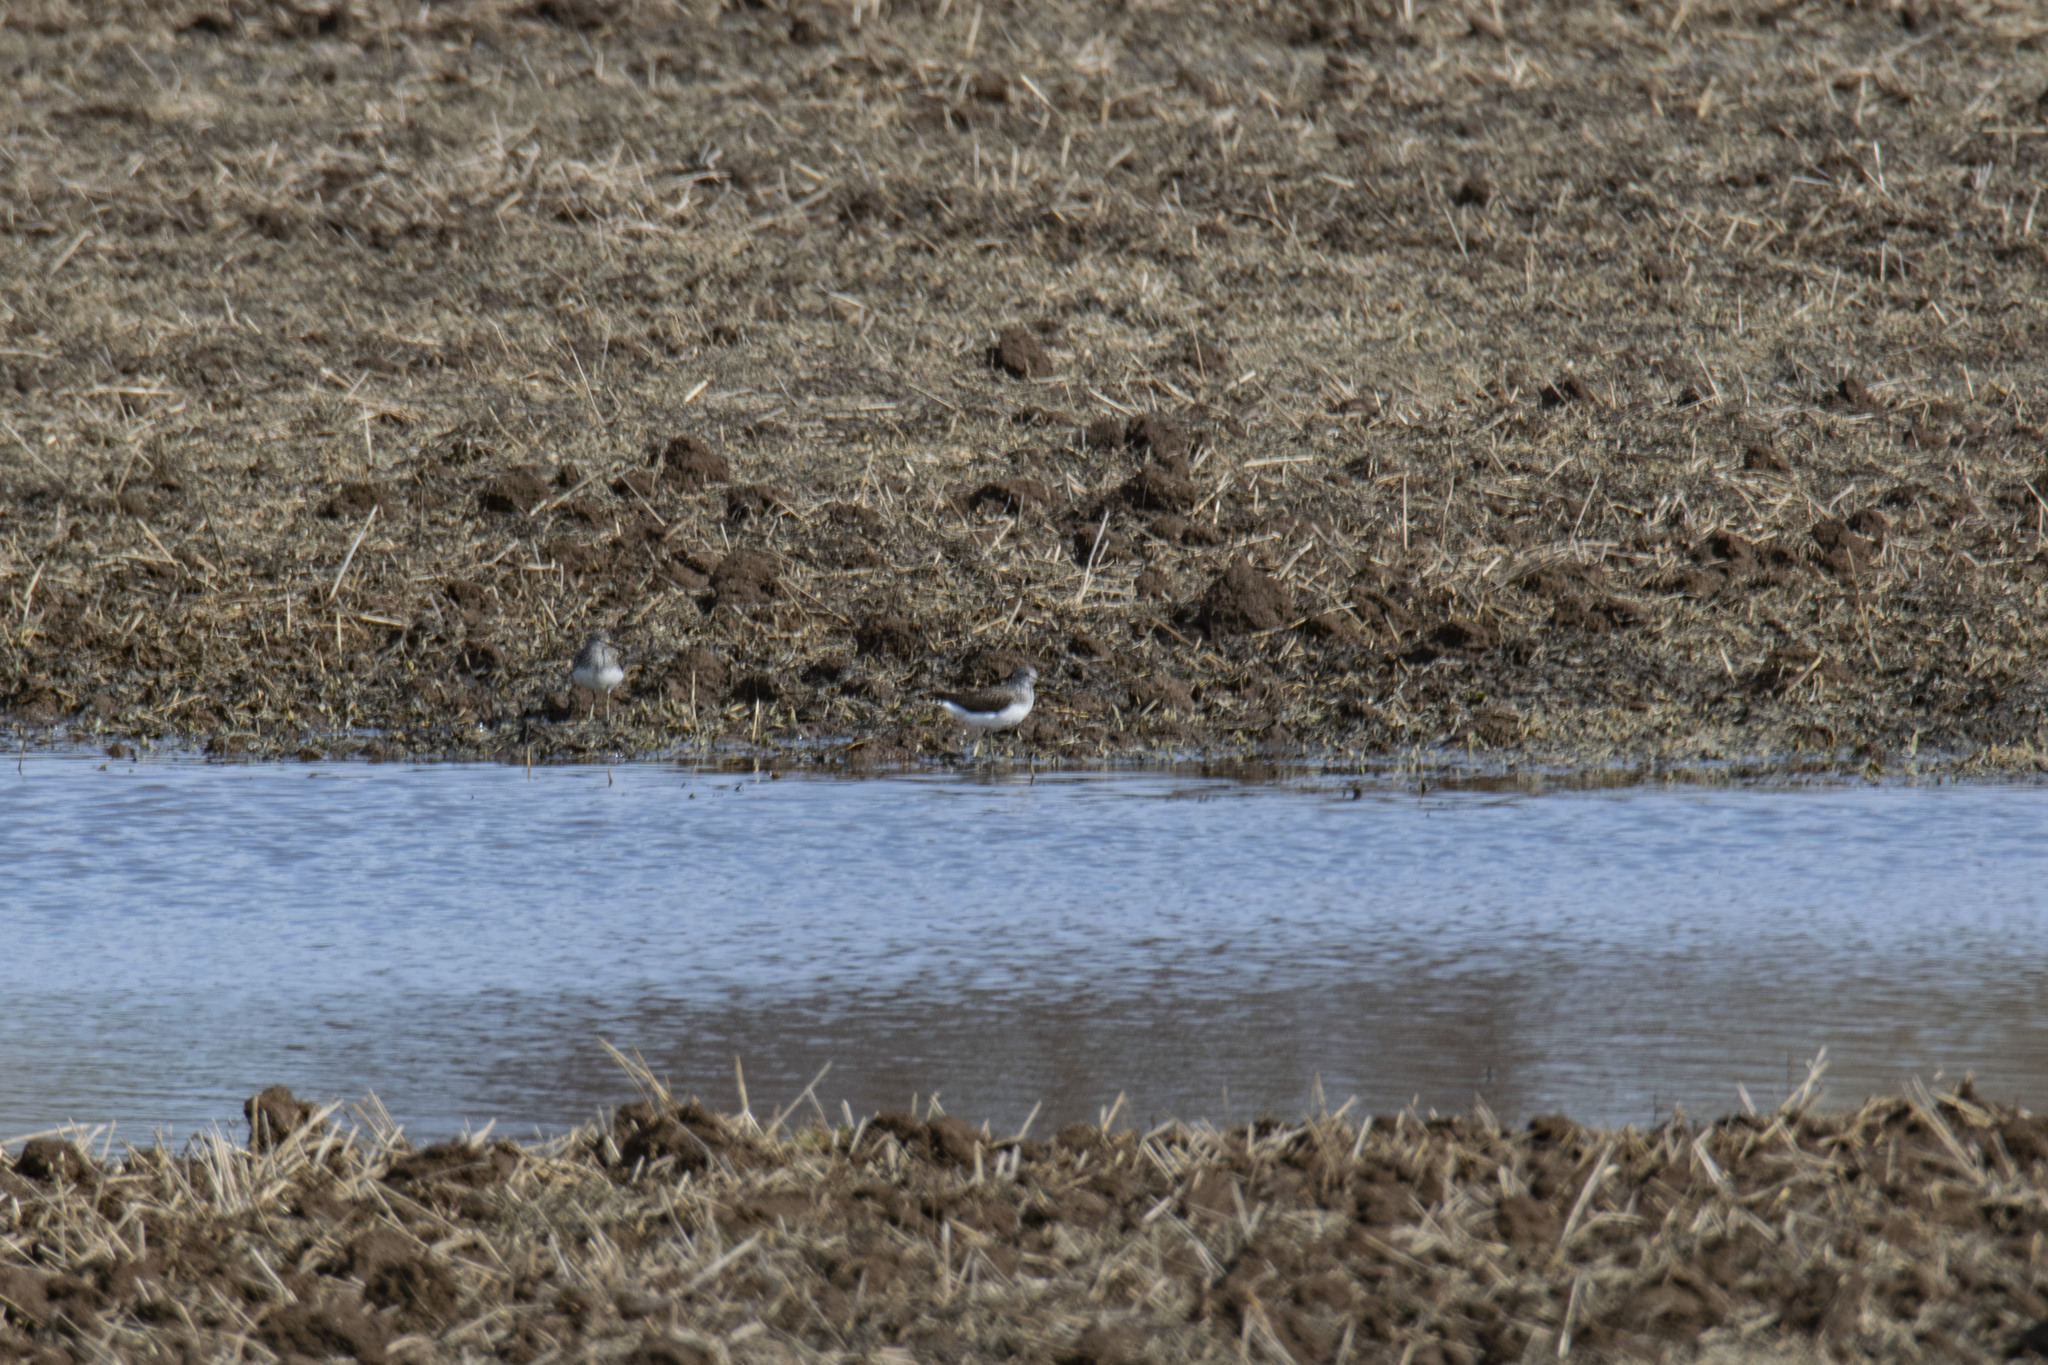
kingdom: Animalia
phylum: Chordata
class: Aves
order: Charadriiformes
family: Scolopacidae
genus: Tringa
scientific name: Tringa ochropus
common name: Green sandpiper
